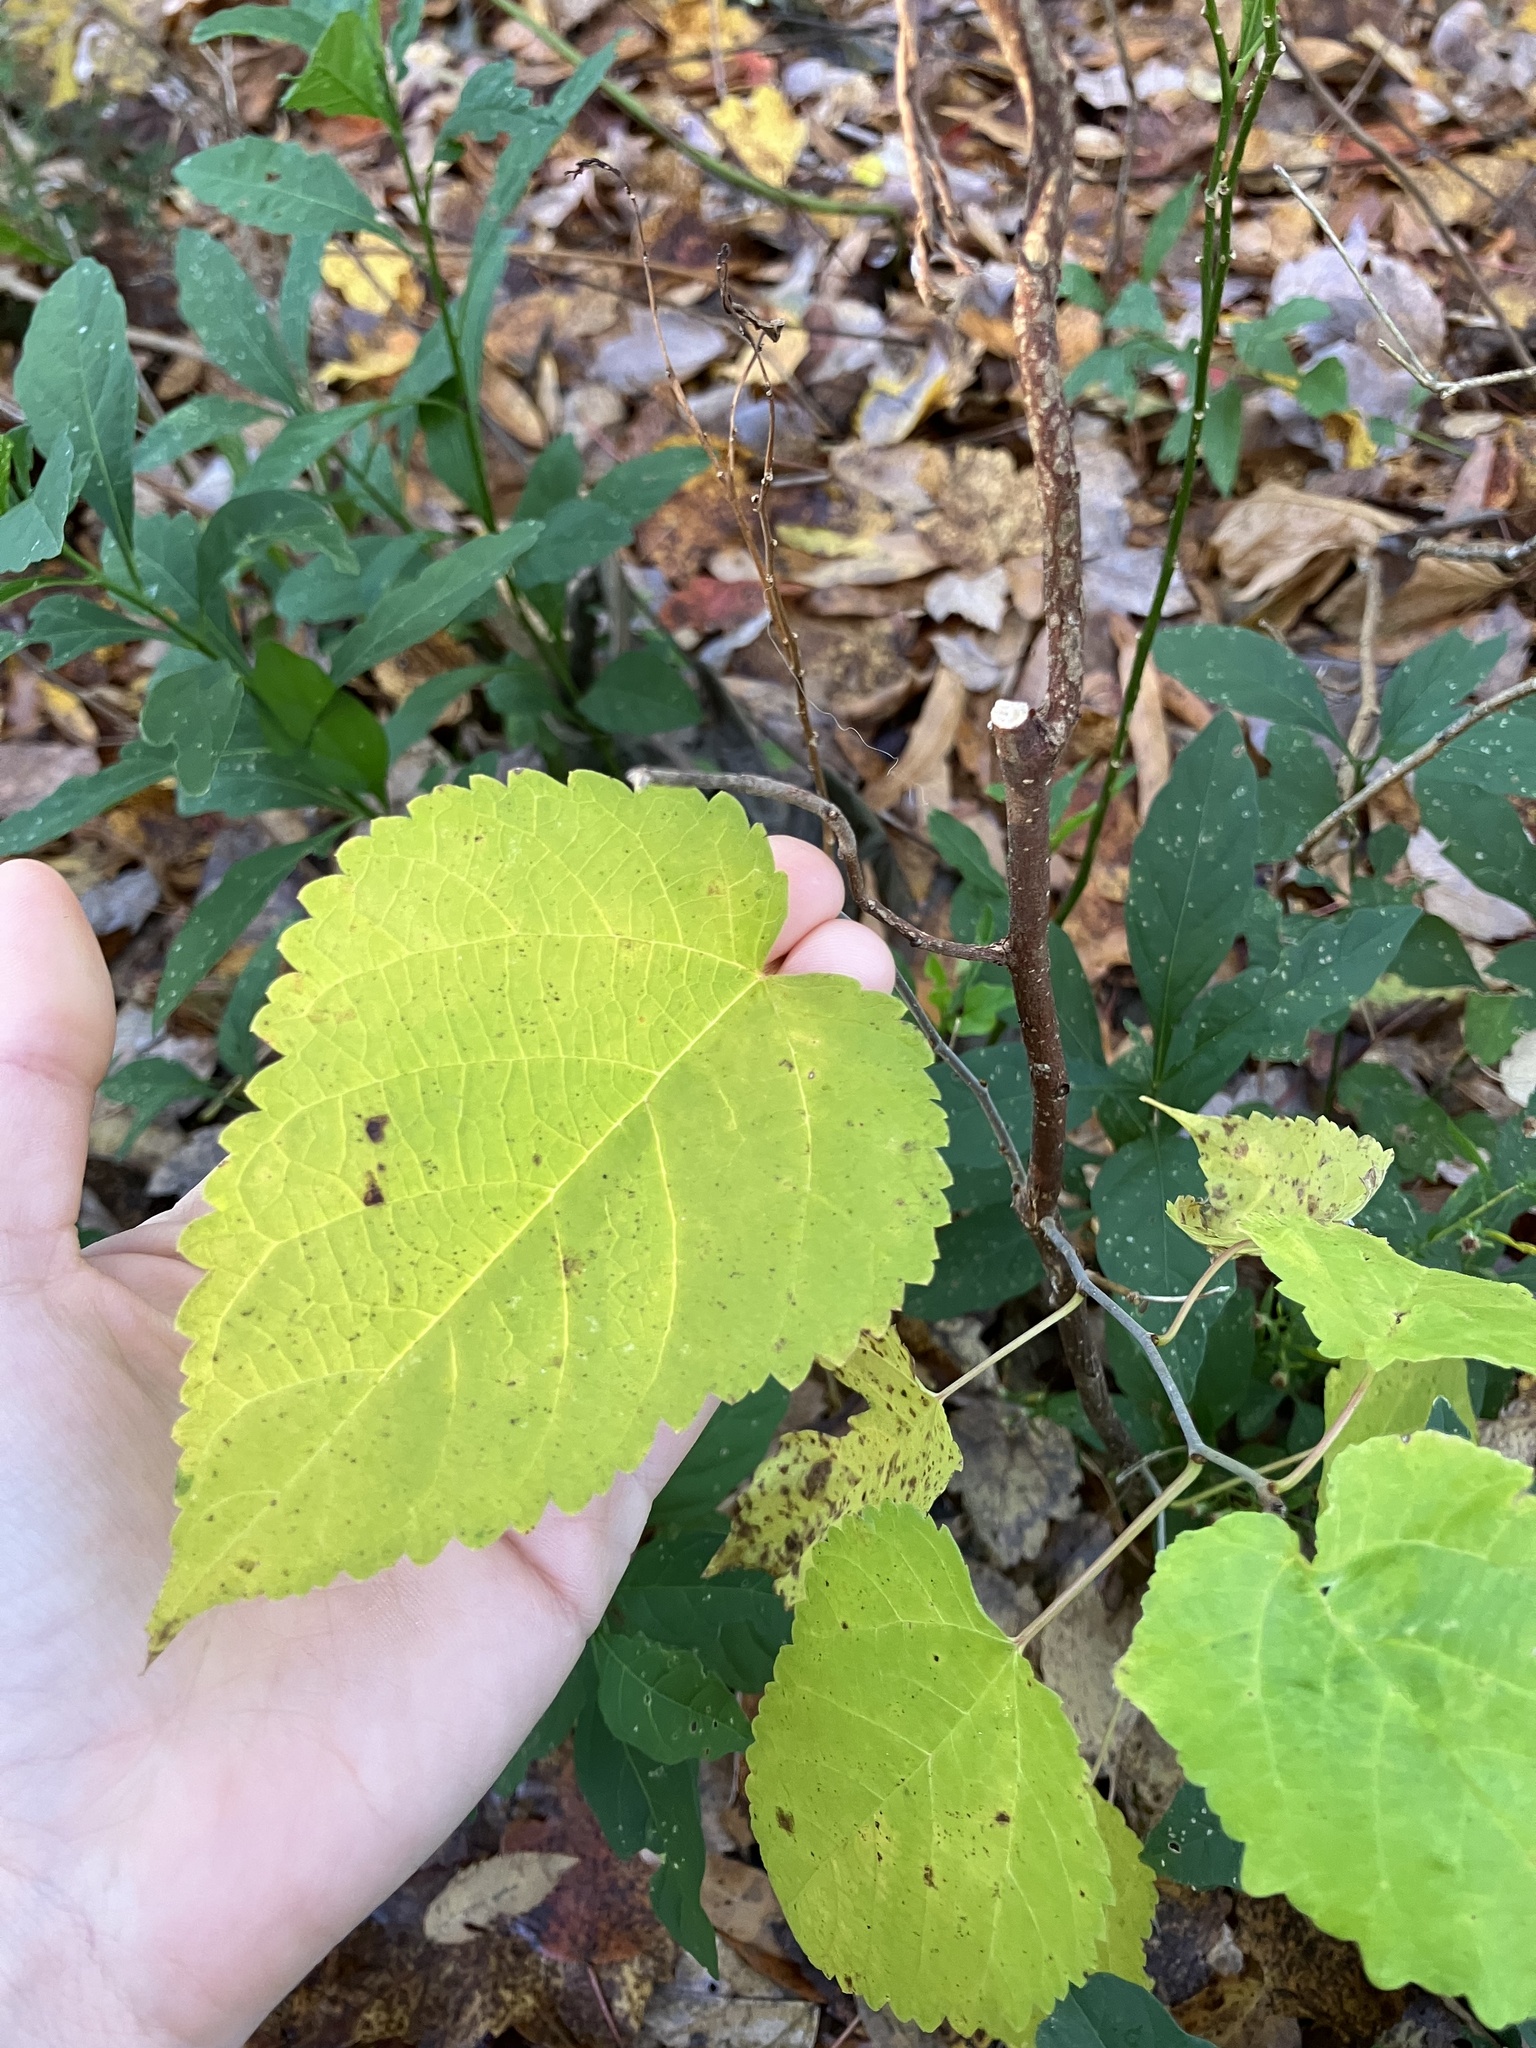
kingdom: Plantae
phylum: Tracheophyta
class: Magnoliopsida
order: Rosales
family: Moraceae
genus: Morus
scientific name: Morus rubra
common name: Red mulberry
